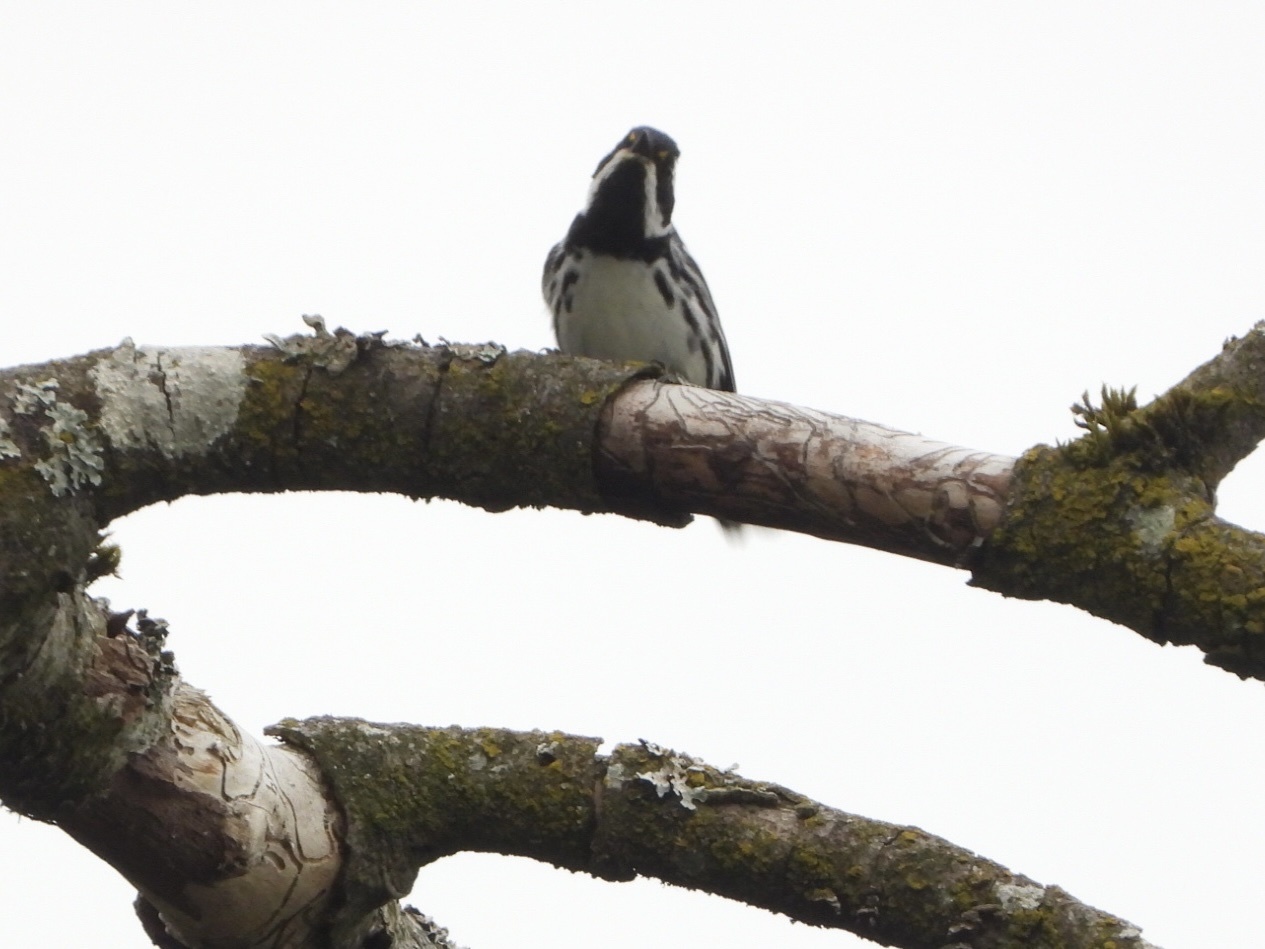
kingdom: Animalia
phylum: Chordata
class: Aves
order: Passeriformes
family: Parulidae
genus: Setophaga
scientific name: Setophaga nigrescens
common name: Black-throated gray warbler
